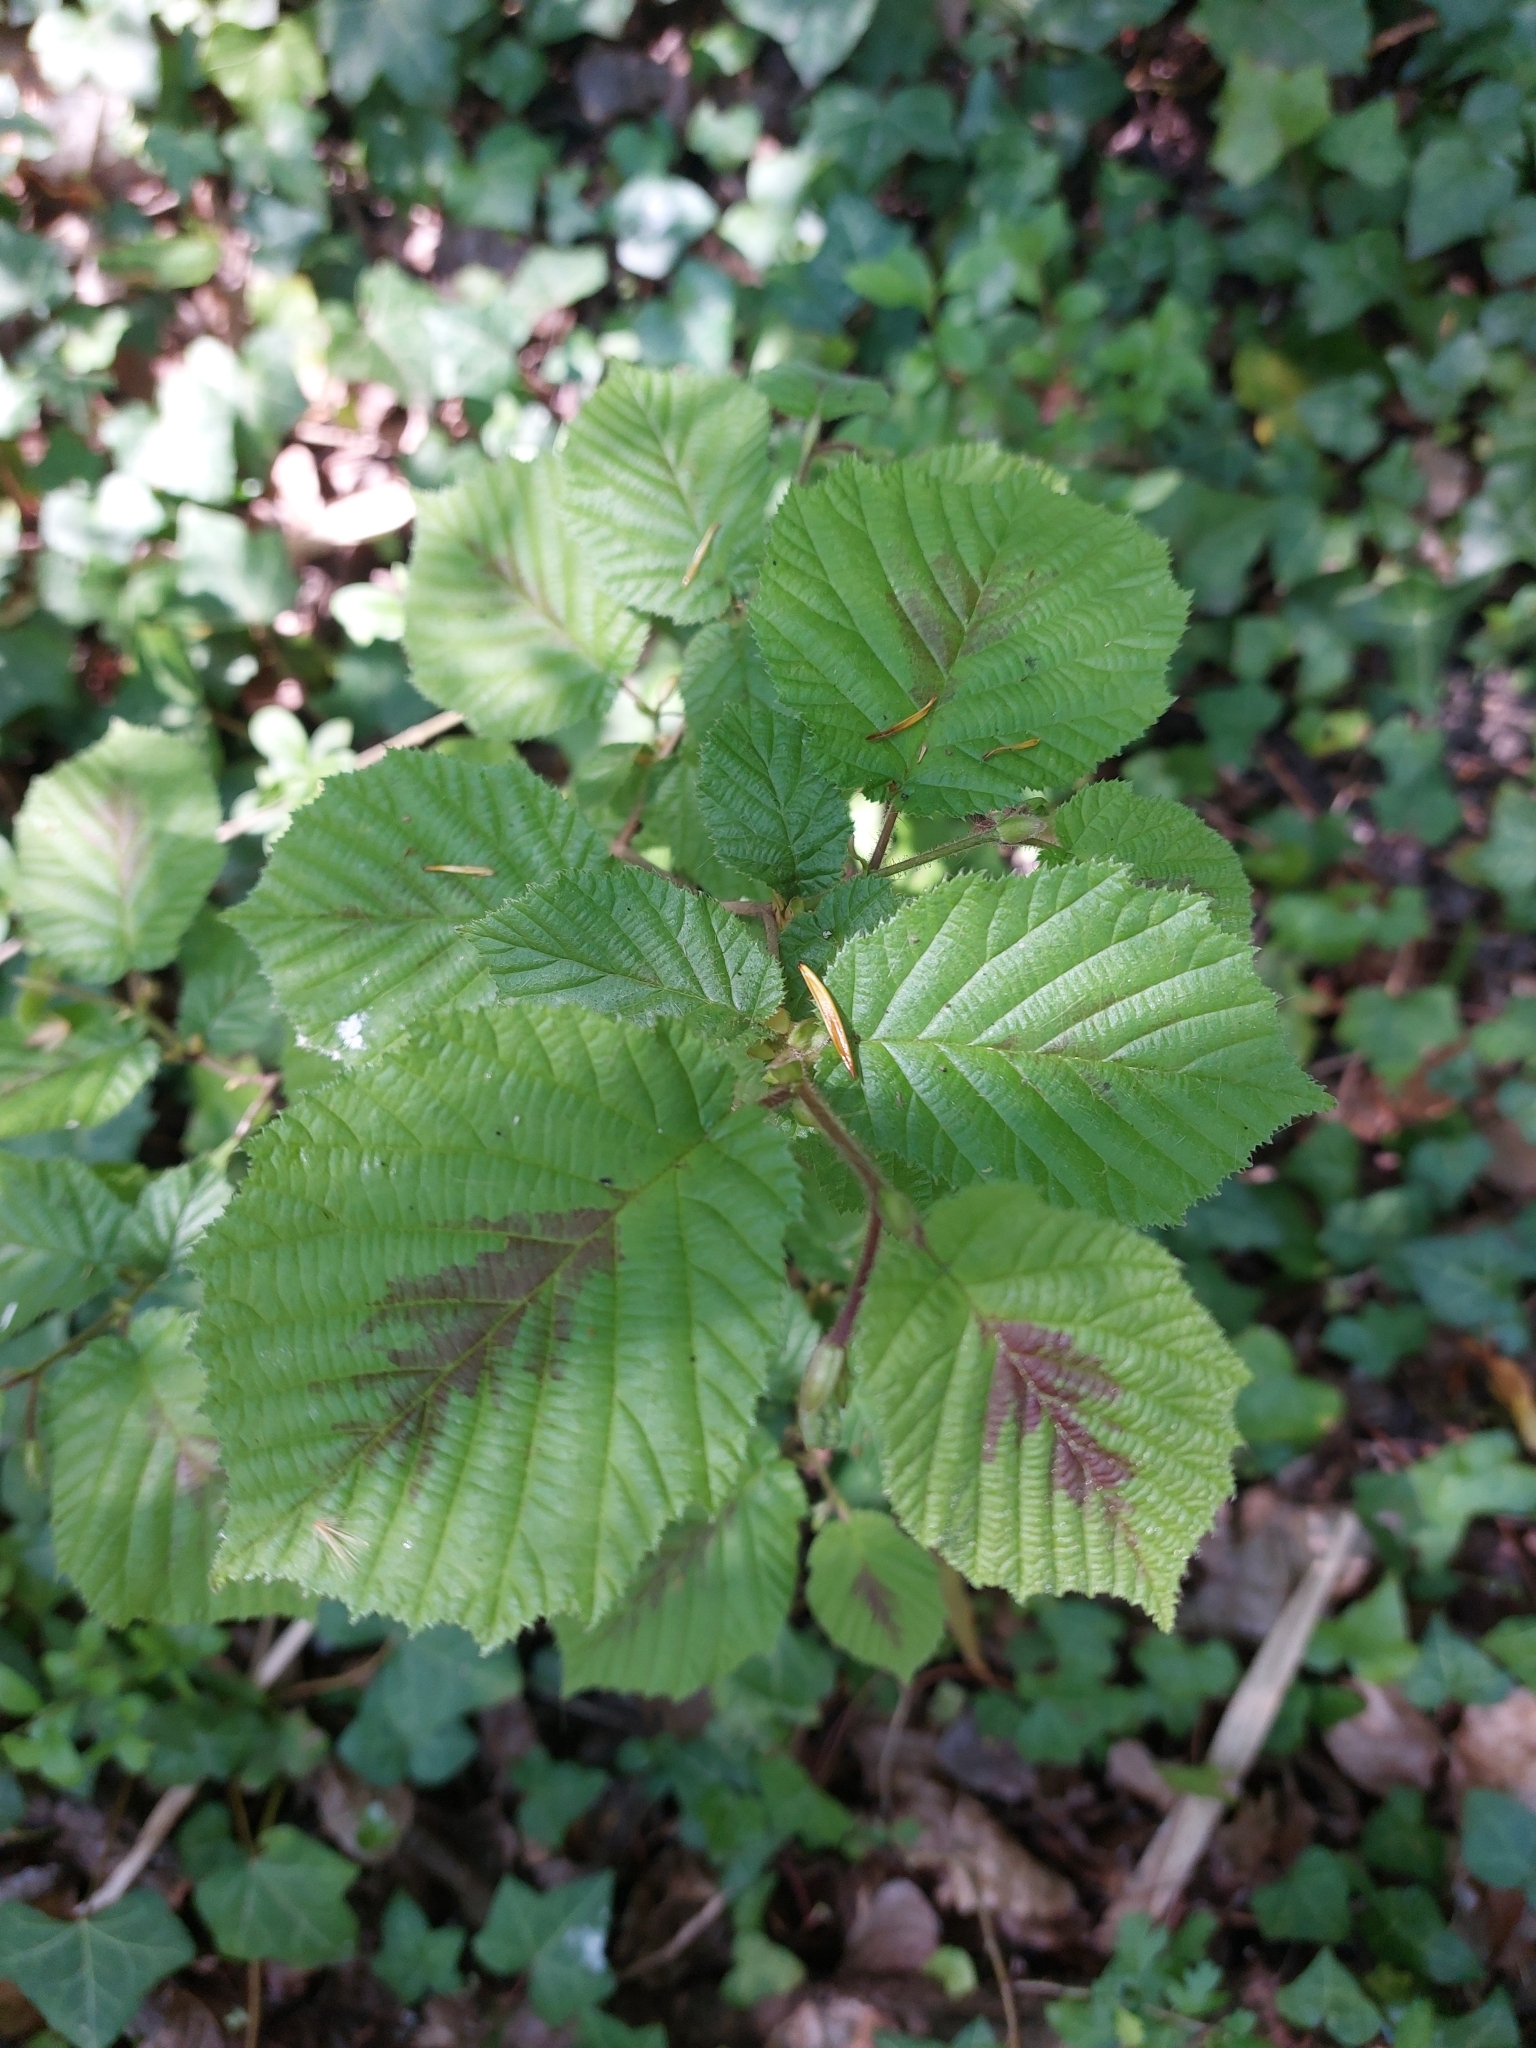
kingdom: Plantae
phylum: Tracheophyta
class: Magnoliopsida
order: Fagales
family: Betulaceae
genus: Corylus
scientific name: Corylus avellana
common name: European hazel
